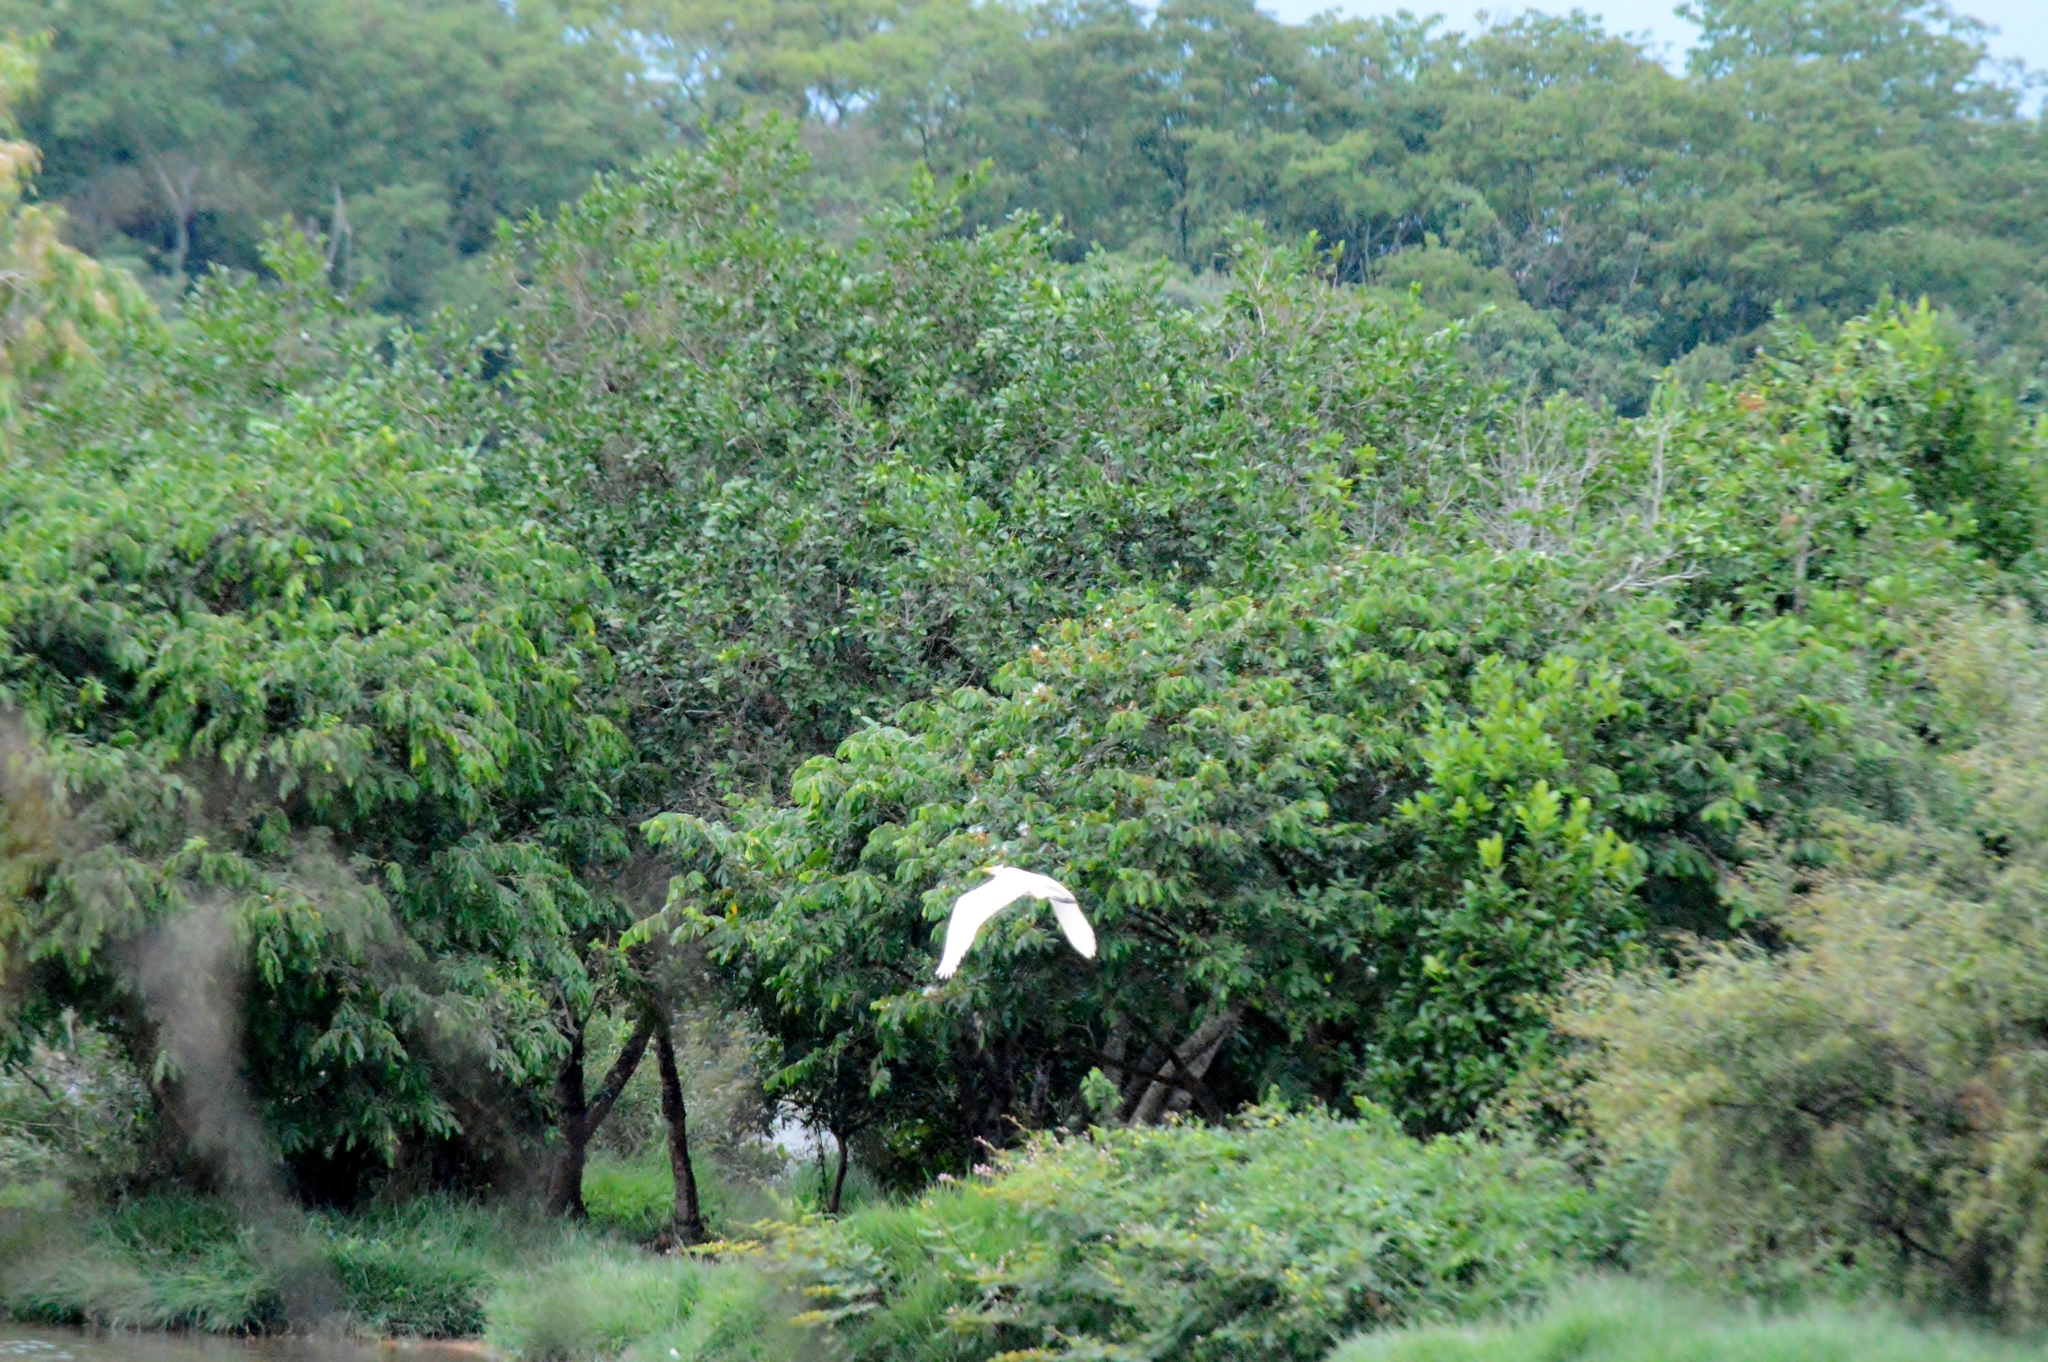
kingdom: Animalia
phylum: Chordata
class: Aves
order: Pelecaniformes
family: Ardeidae
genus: Ardea
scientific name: Ardea alba
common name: Great egret
